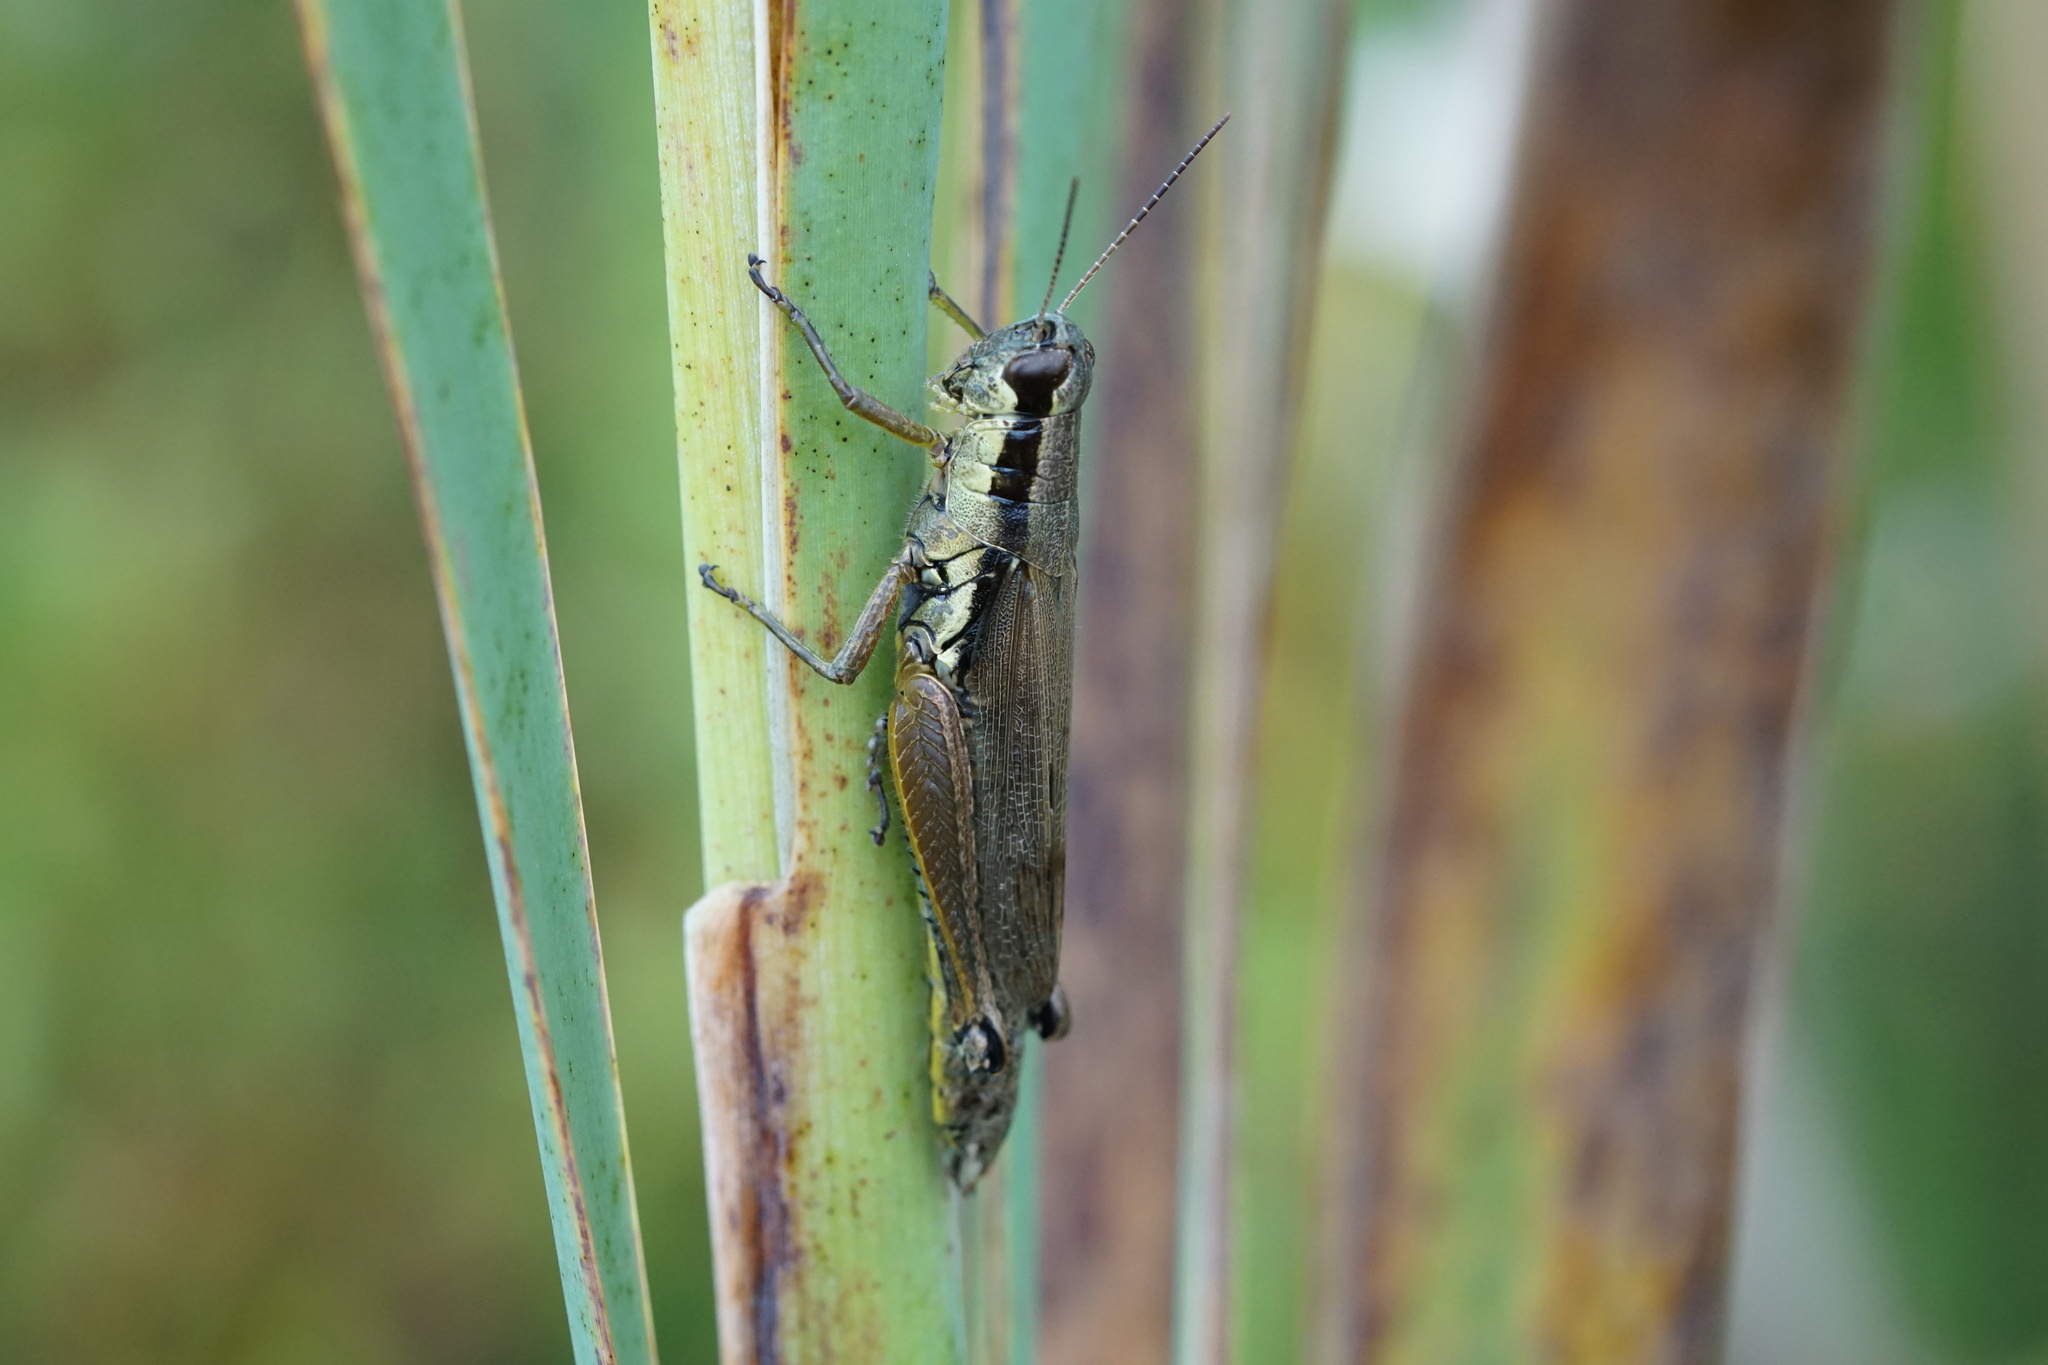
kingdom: Animalia
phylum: Arthropoda
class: Insecta
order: Orthoptera
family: Acrididae
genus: Paroxya
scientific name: Paroxya clavuligera
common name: Olive-green swamp grasshopper
